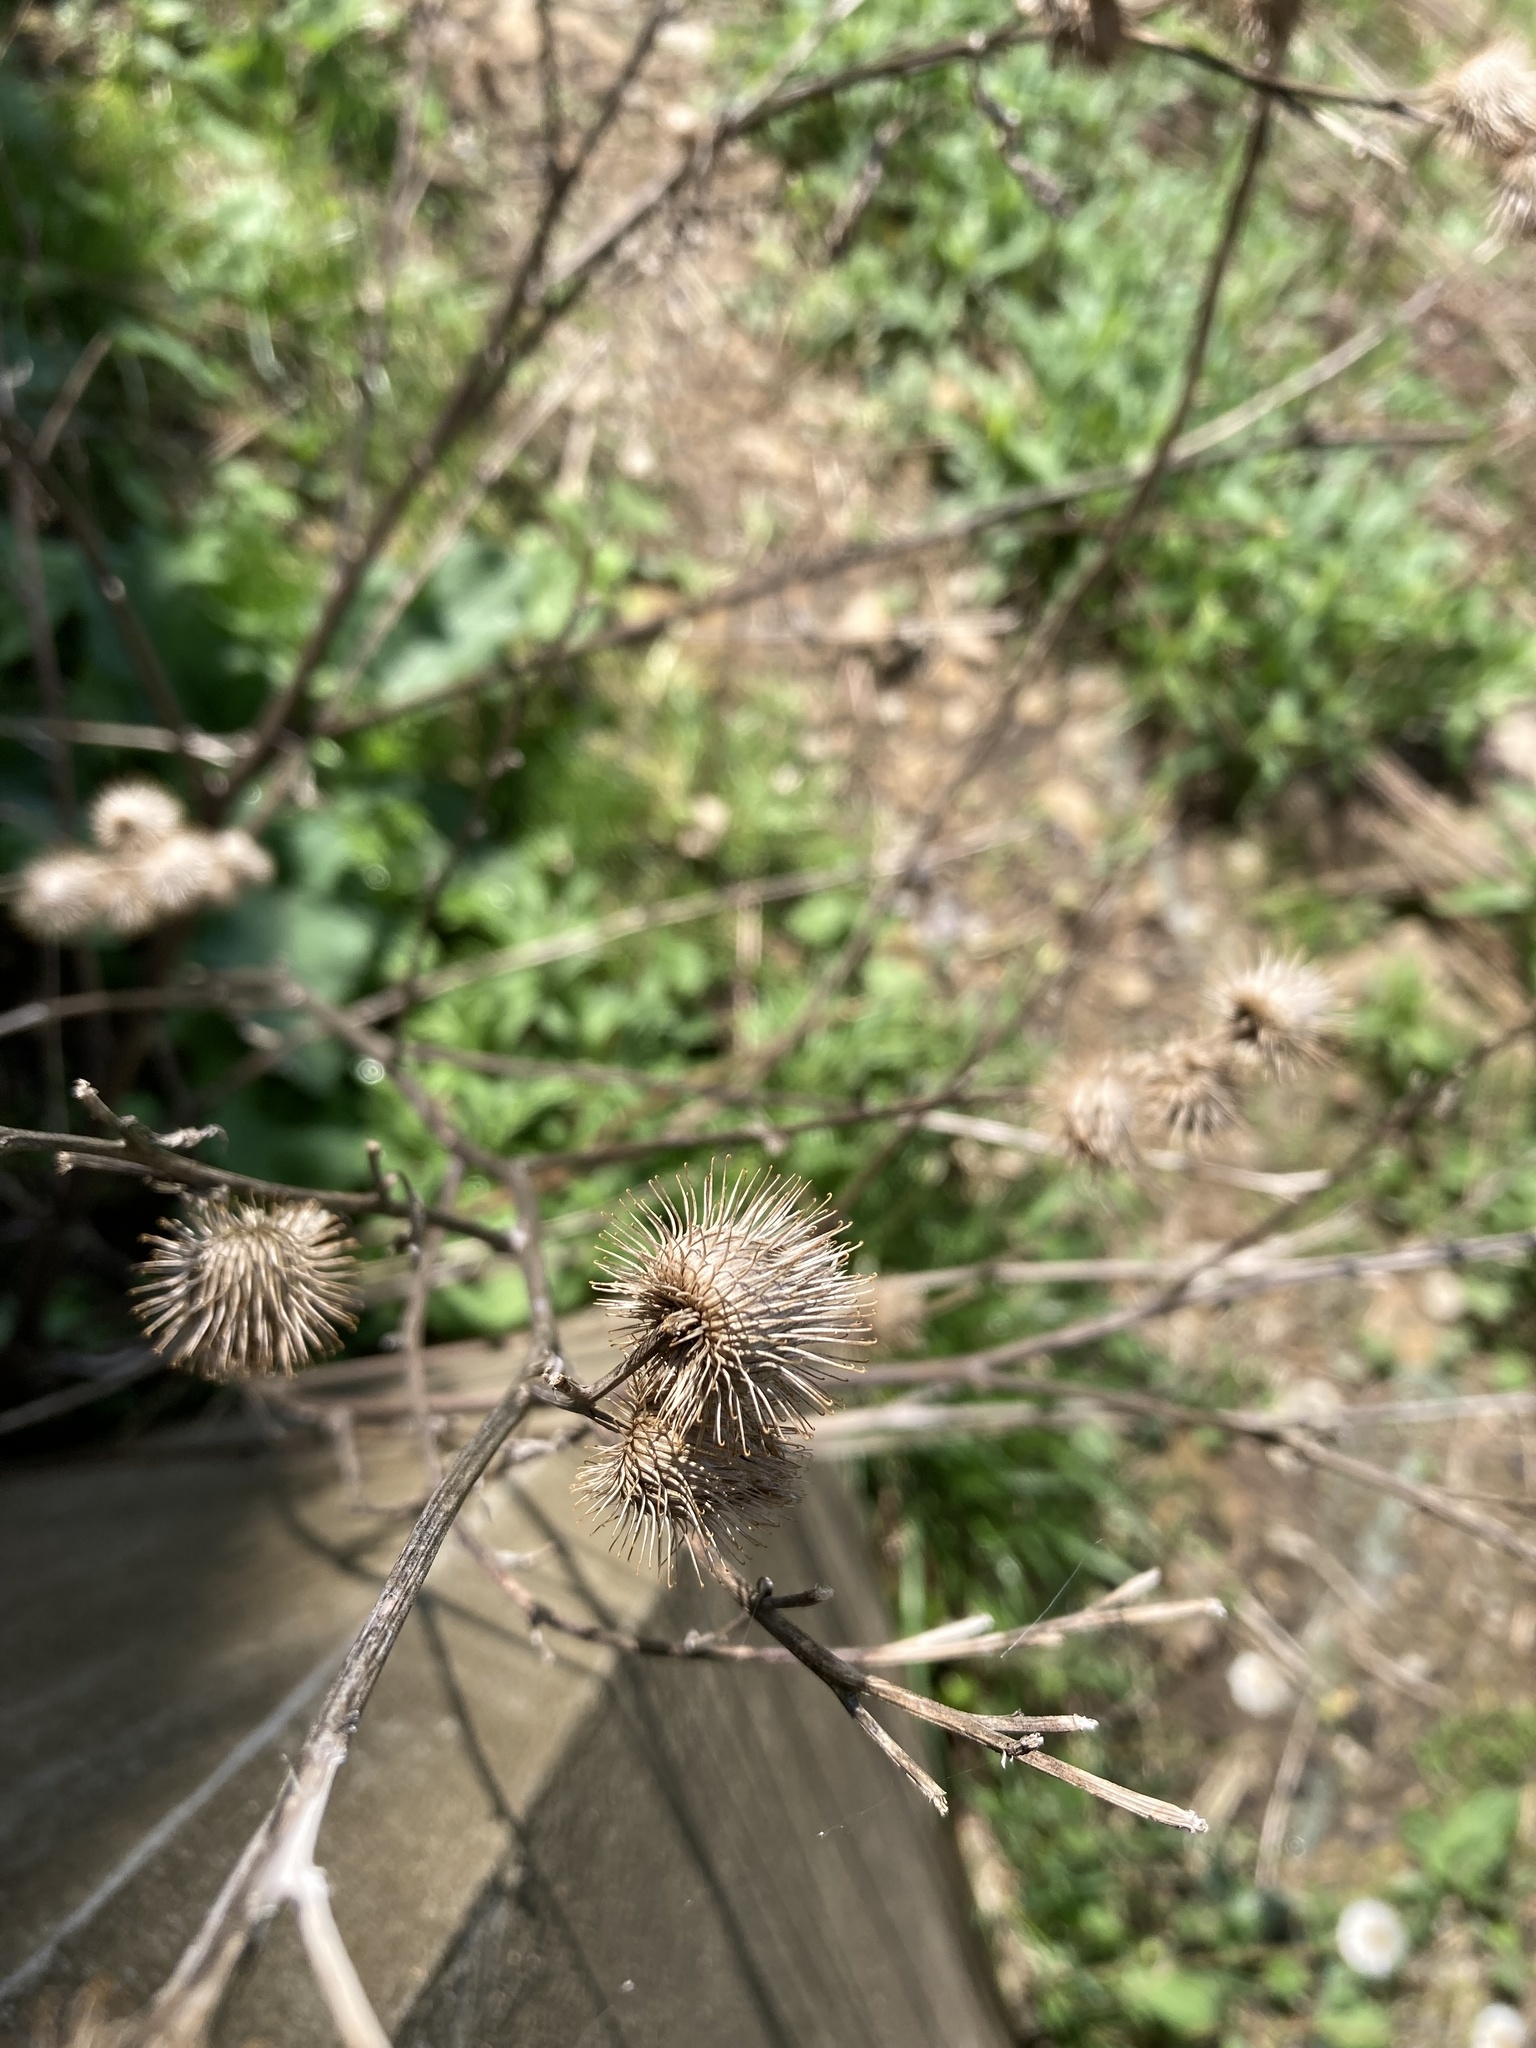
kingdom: Plantae
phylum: Tracheophyta
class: Magnoliopsida
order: Asterales
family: Asteraceae
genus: Arctium
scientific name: Arctium minus
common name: Lesser burdock
